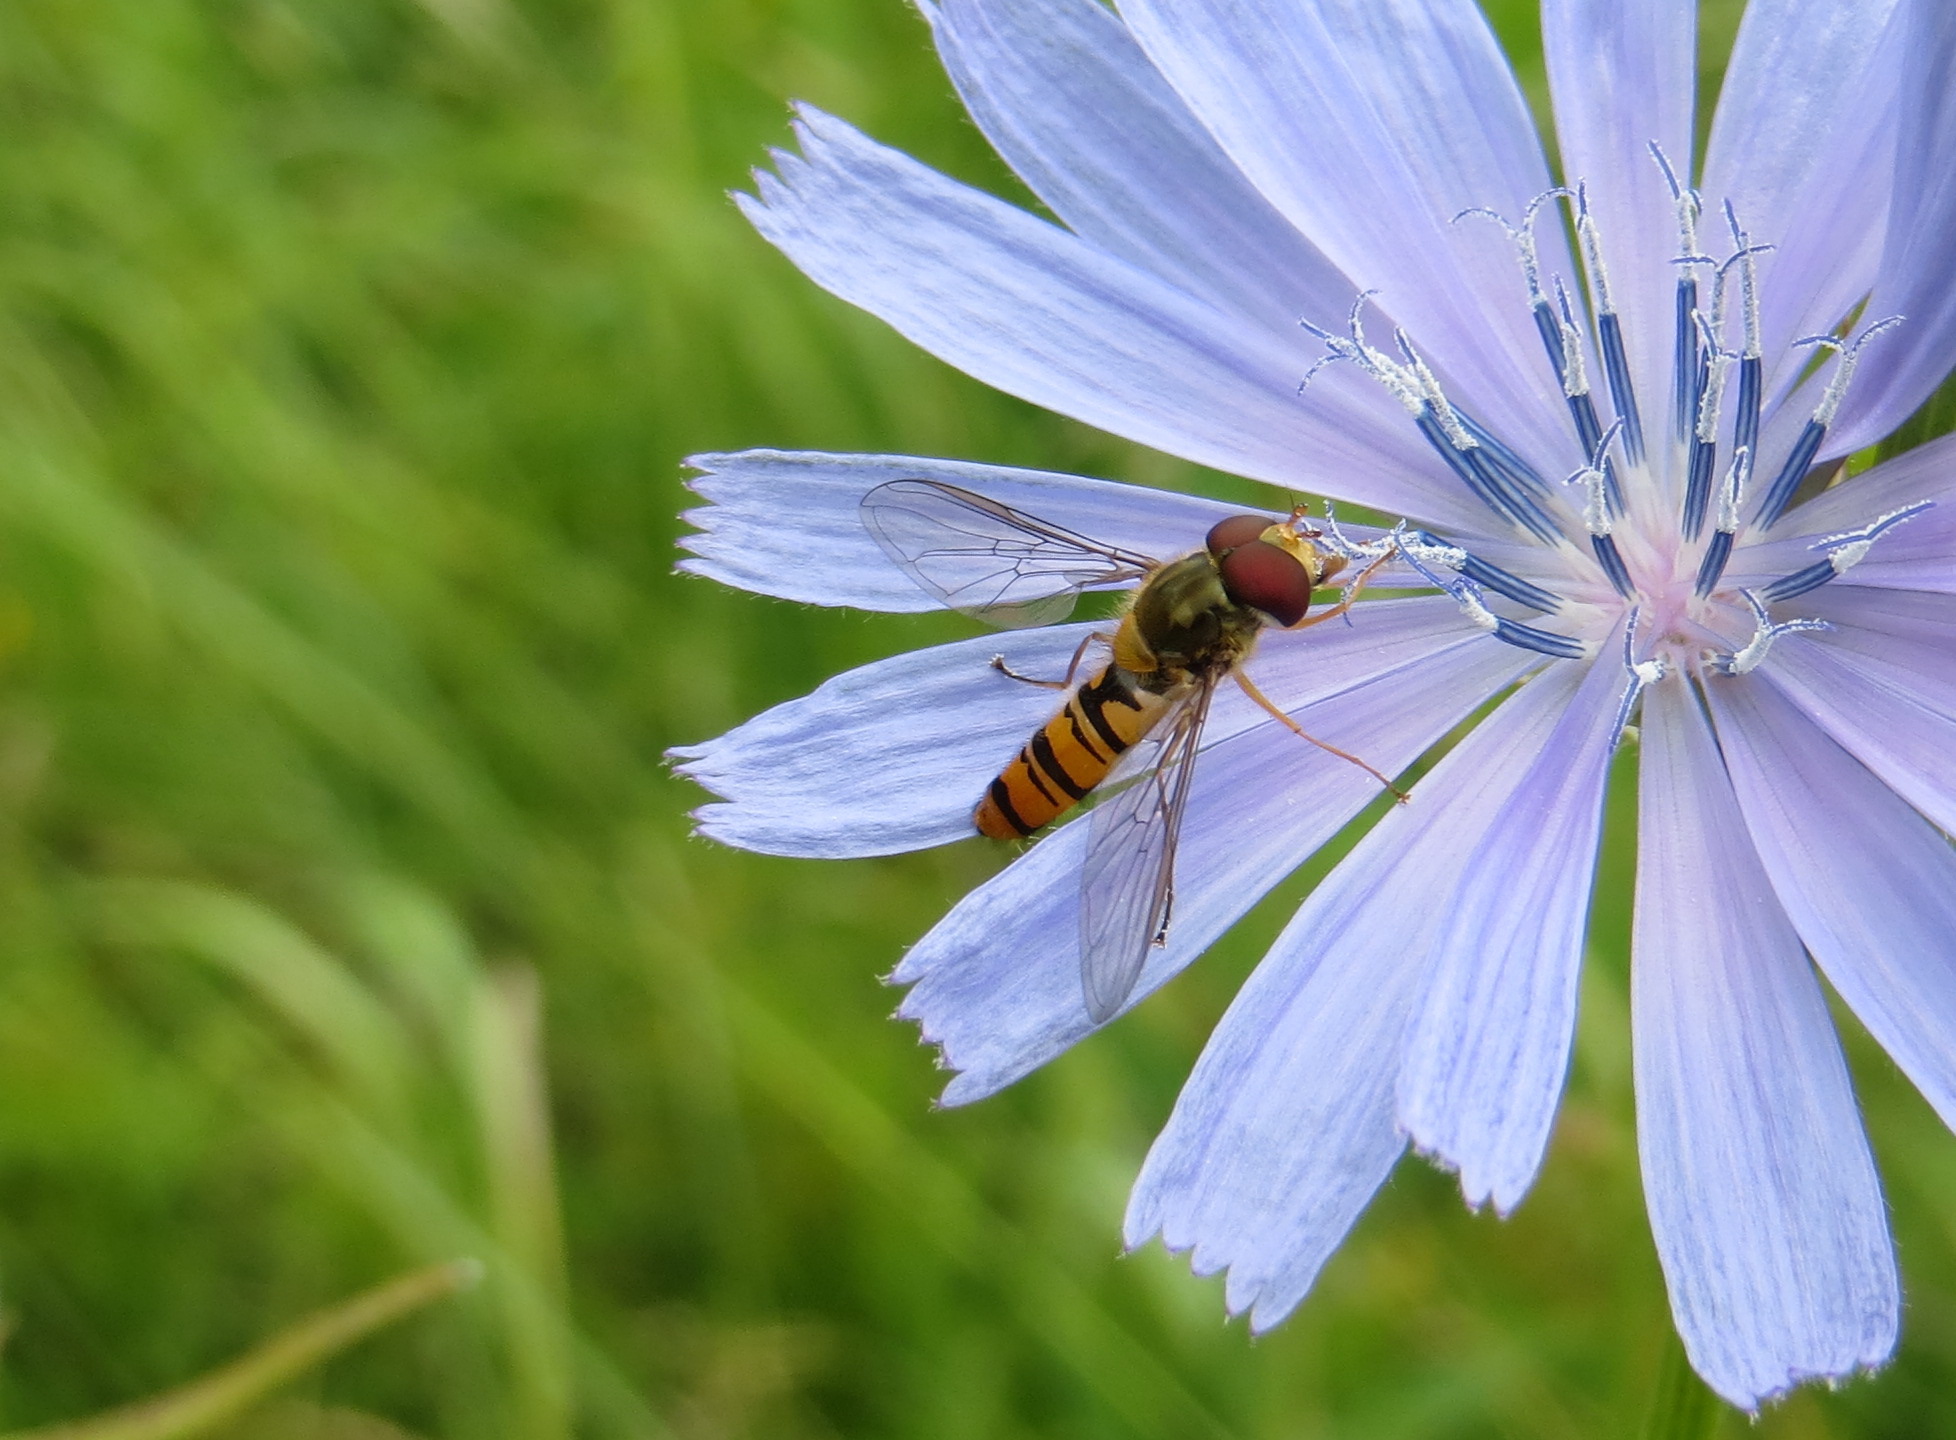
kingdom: Animalia
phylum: Arthropoda
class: Insecta
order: Diptera
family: Syrphidae
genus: Episyrphus
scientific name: Episyrphus balteatus
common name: Marmalade hoverfly
